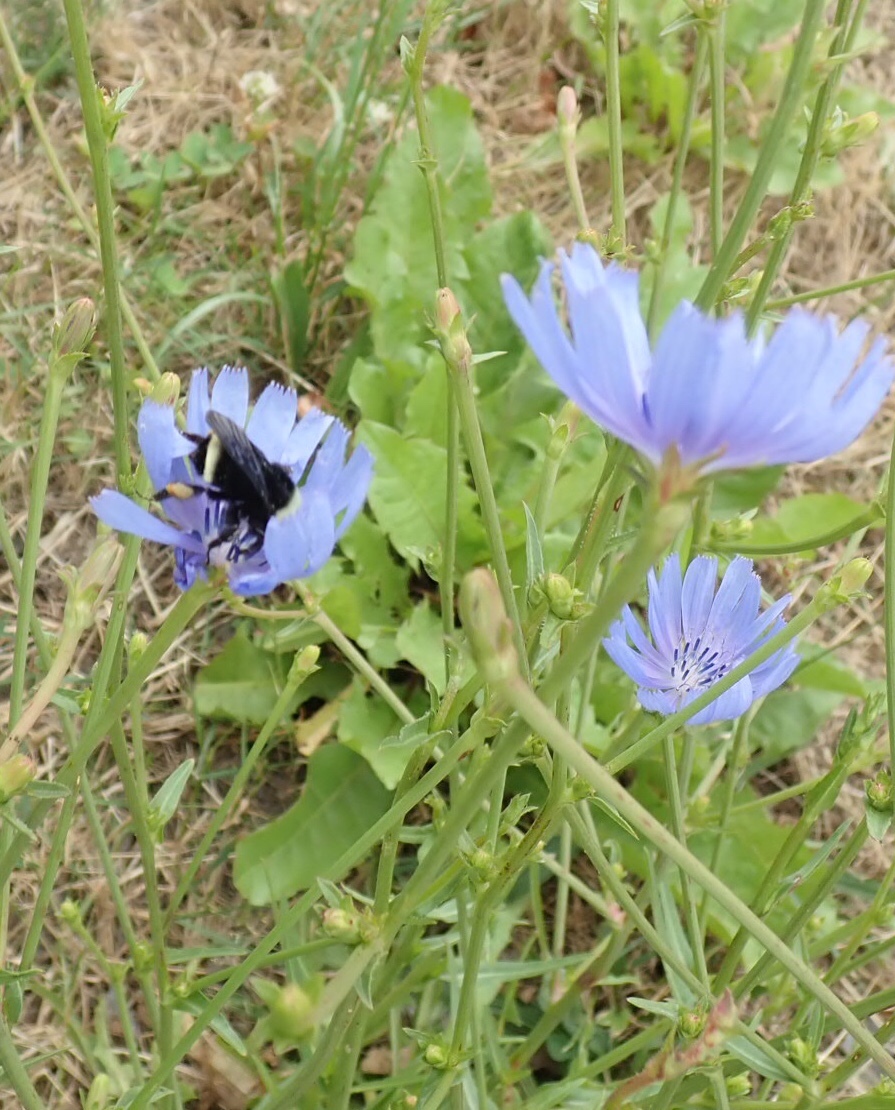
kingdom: Plantae
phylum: Tracheophyta
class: Magnoliopsida
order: Asterales
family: Asteraceae
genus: Cichorium
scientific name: Cichorium intybus
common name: Chicory
